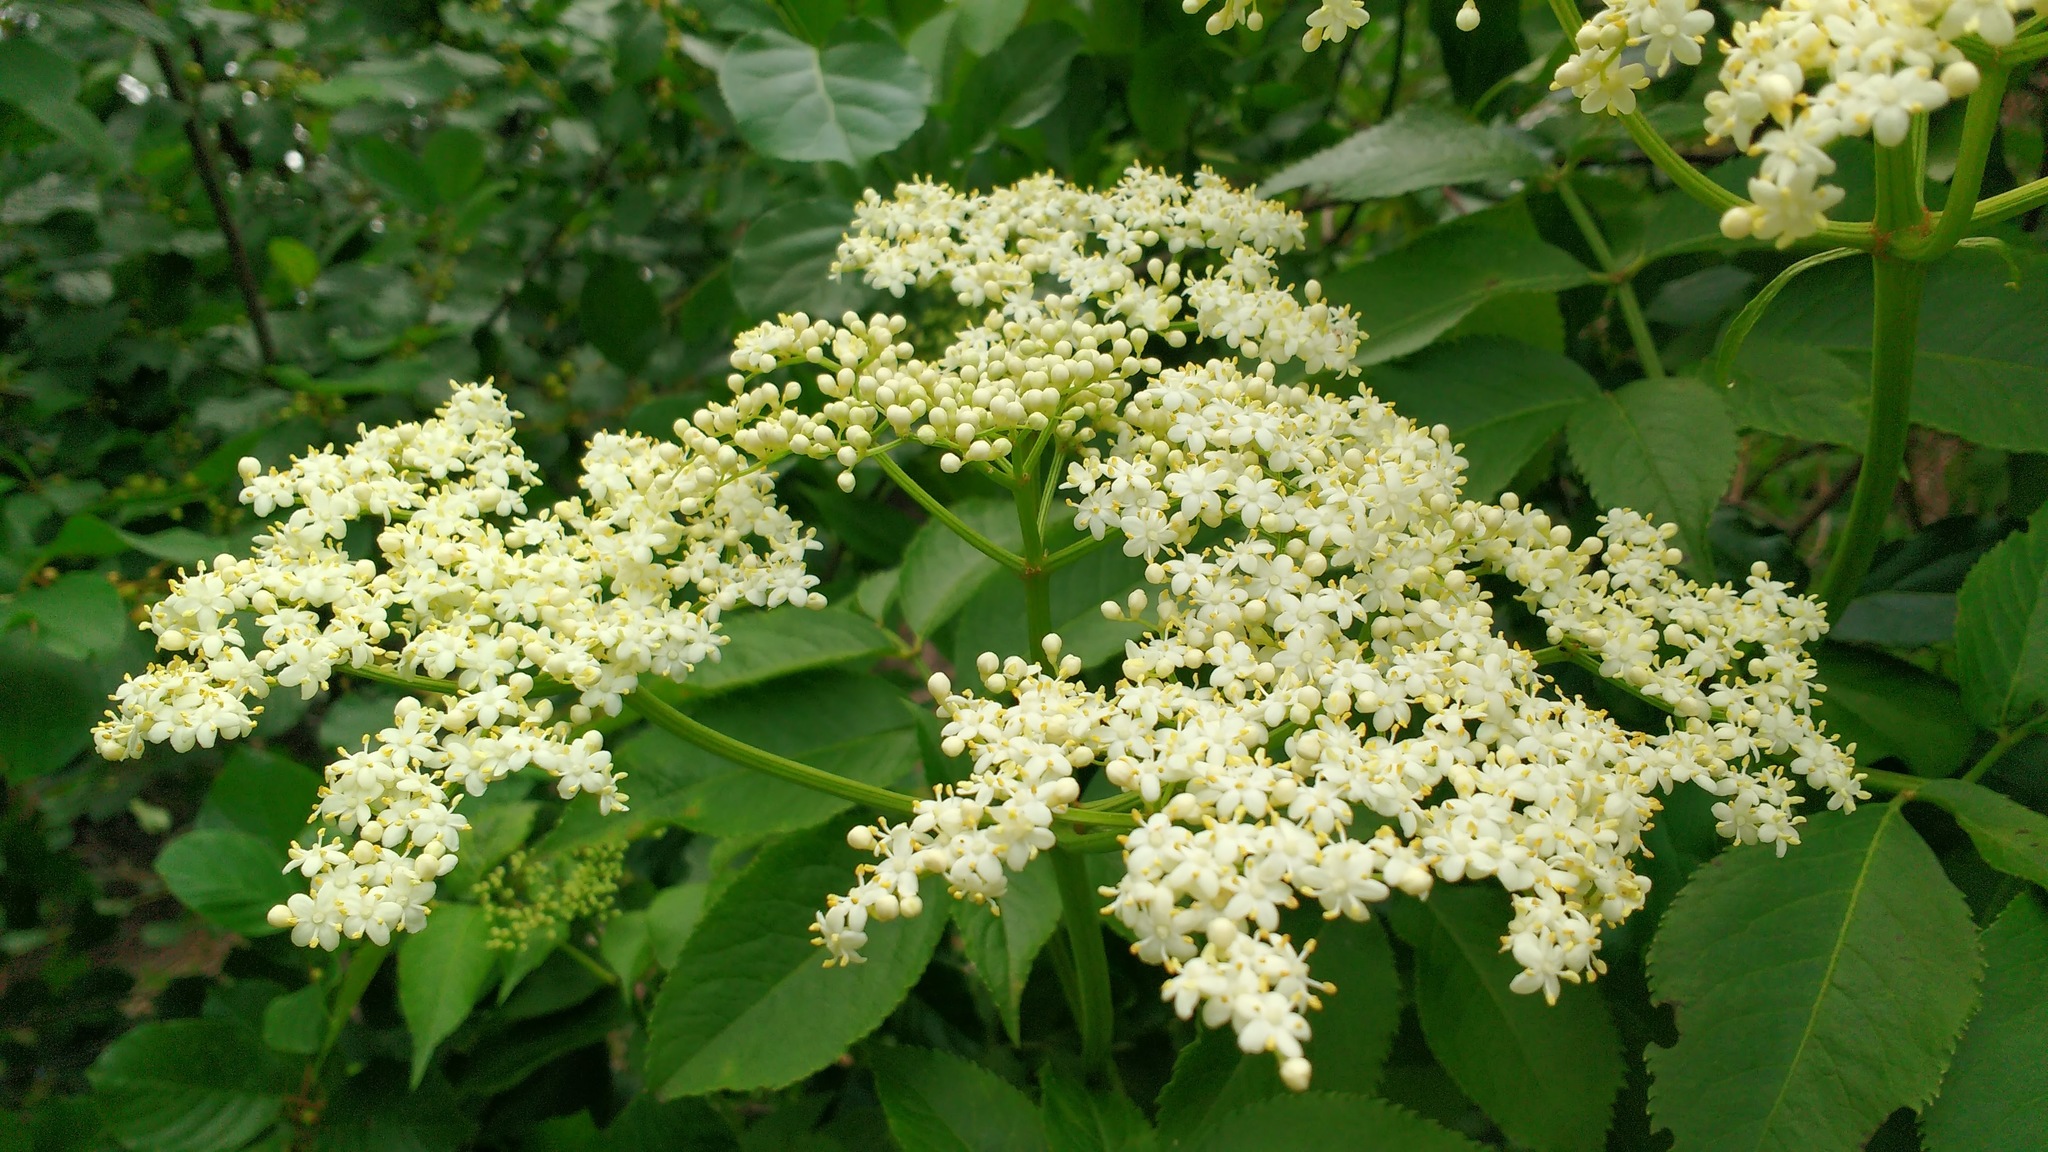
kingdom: Plantae
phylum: Tracheophyta
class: Magnoliopsida
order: Dipsacales
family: Viburnaceae
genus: Sambucus
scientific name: Sambucus canadensis
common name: American elder
